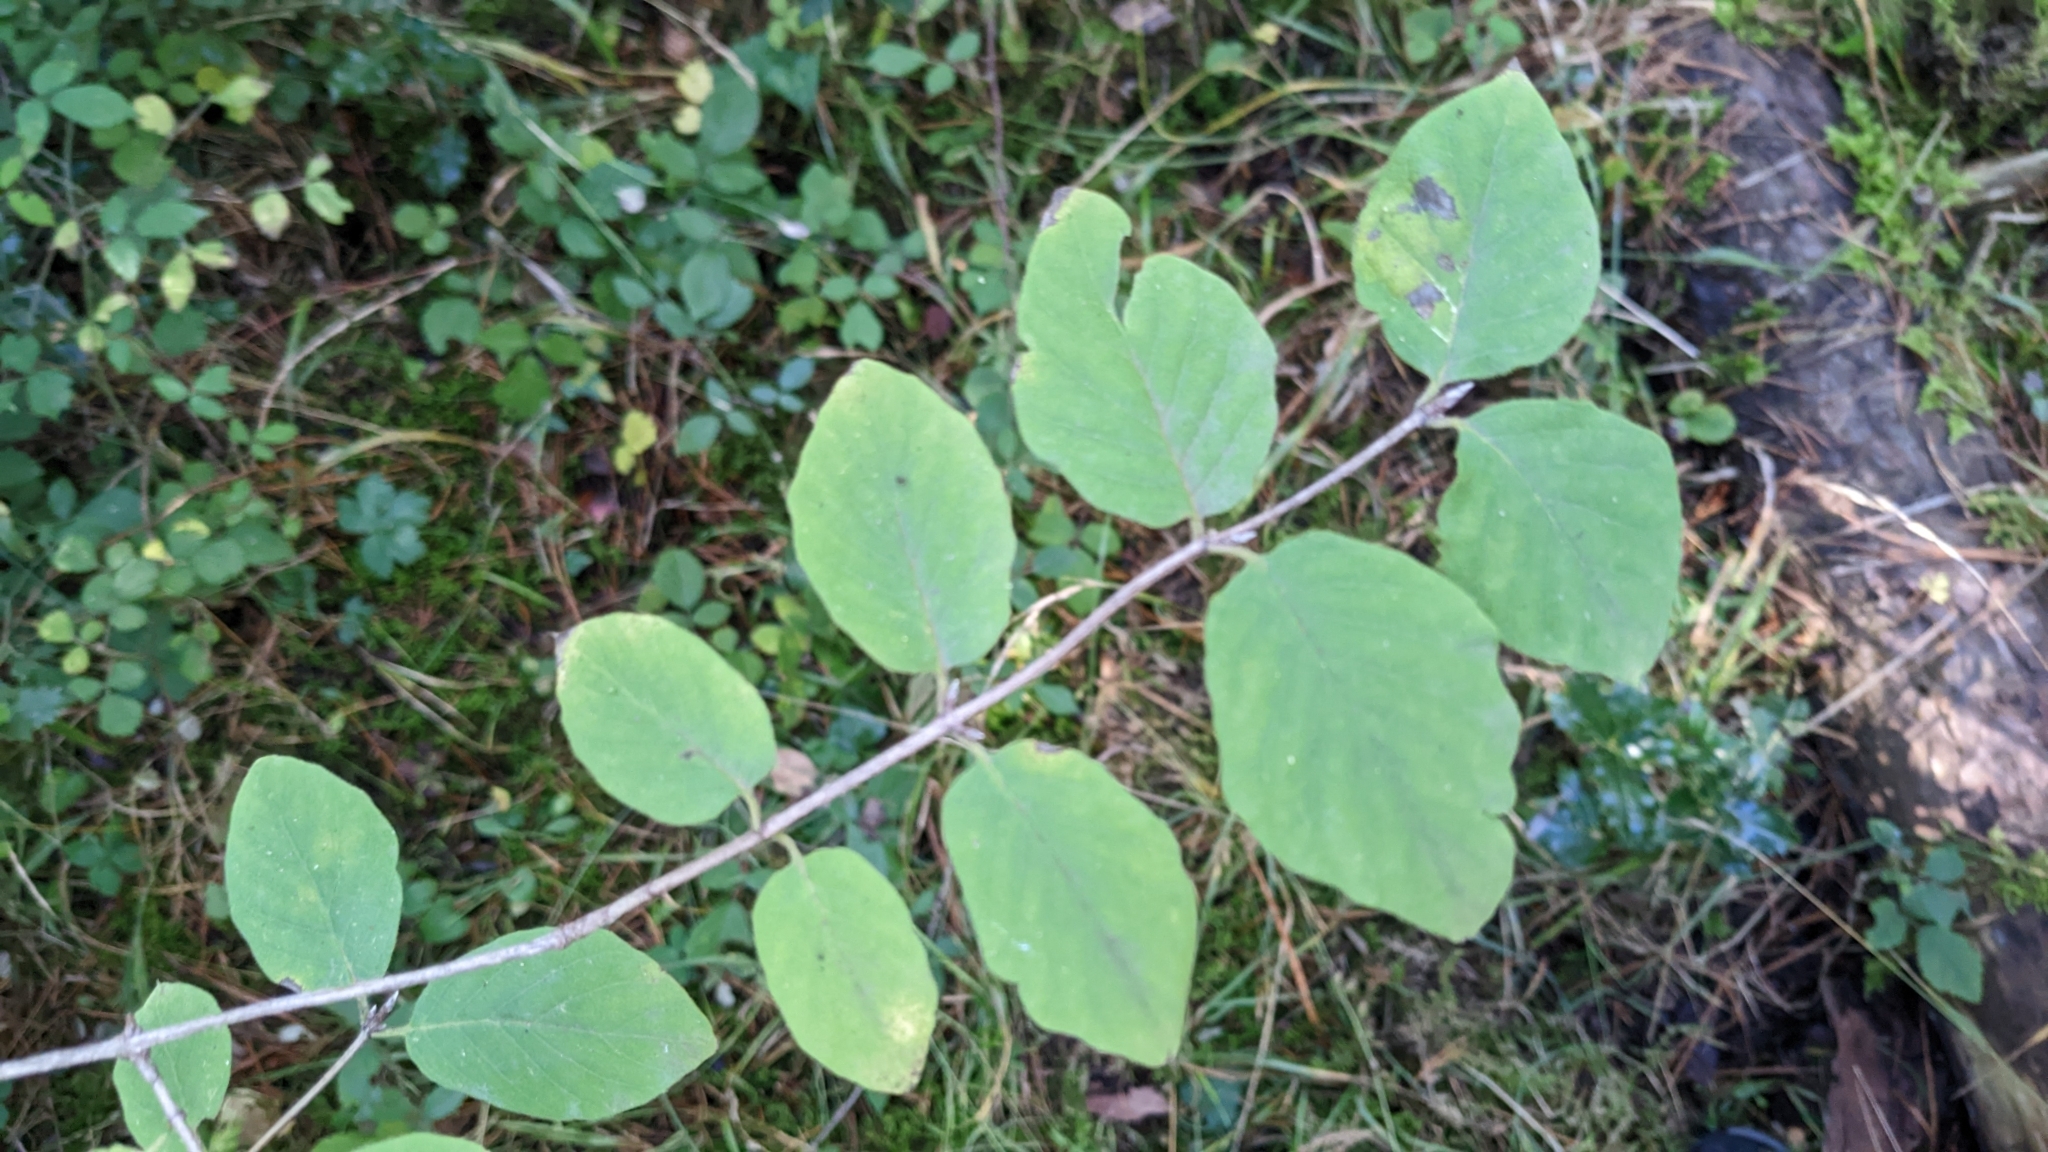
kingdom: Plantae
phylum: Tracheophyta
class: Magnoliopsida
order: Dipsacales
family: Caprifoliaceae
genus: Lonicera
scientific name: Lonicera xylosteum
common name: Fly honeysuckle
